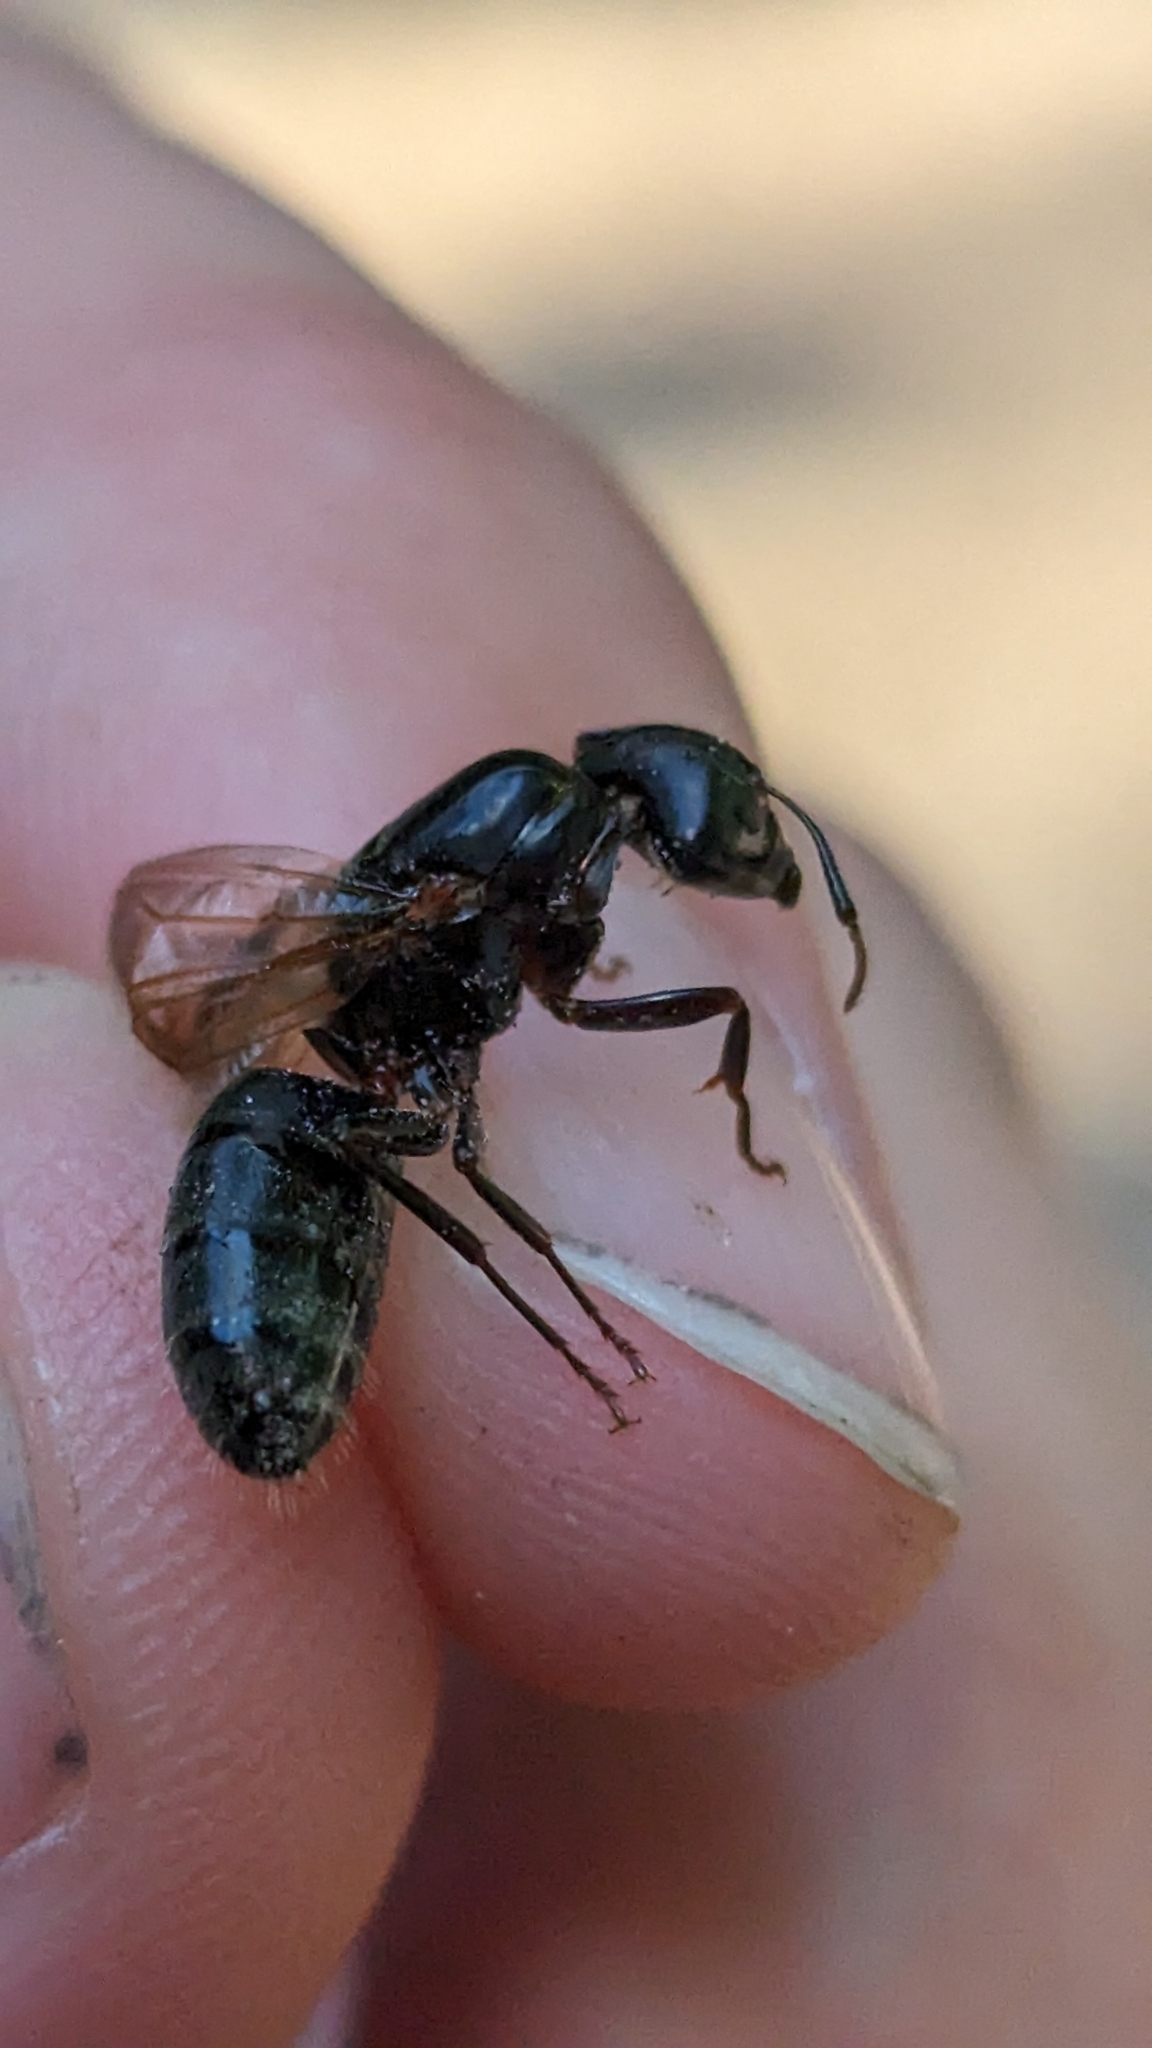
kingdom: Animalia
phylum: Arthropoda
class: Insecta
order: Hymenoptera
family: Formicidae
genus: Camponotus
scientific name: Camponotus pennsylvanicus
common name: Black carpenter ant
